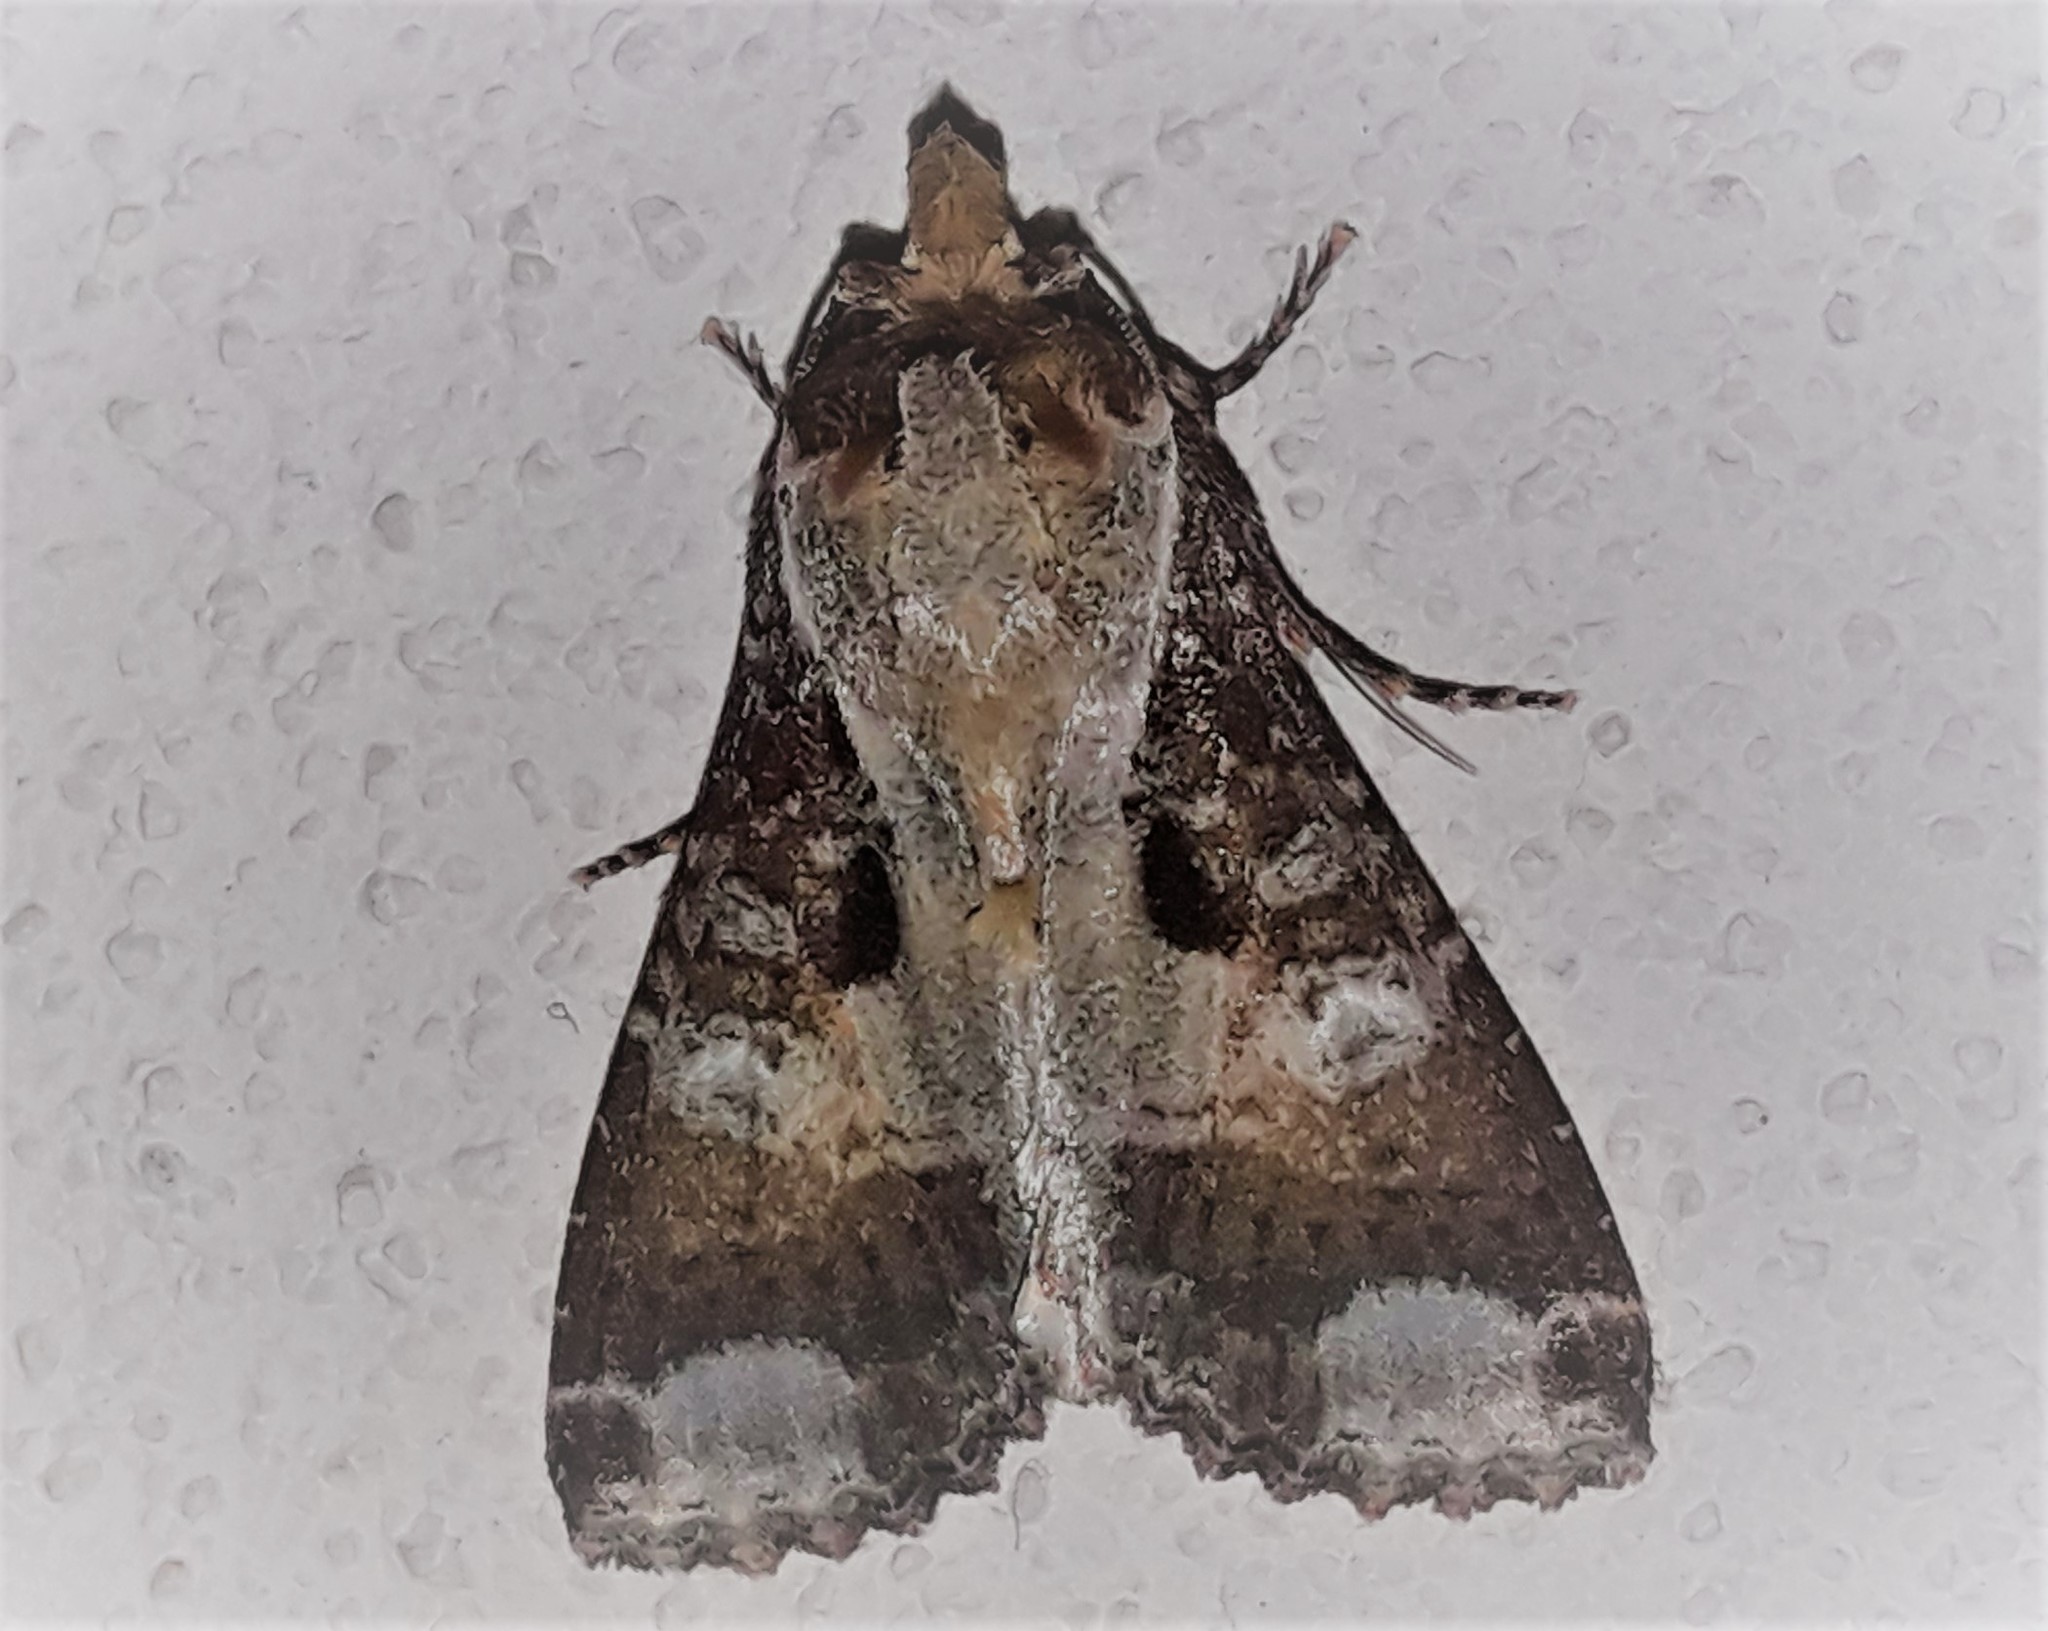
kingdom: Animalia
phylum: Arthropoda
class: Insecta
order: Lepidoptera
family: Noctuidae
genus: Condica
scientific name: Condica imitata
